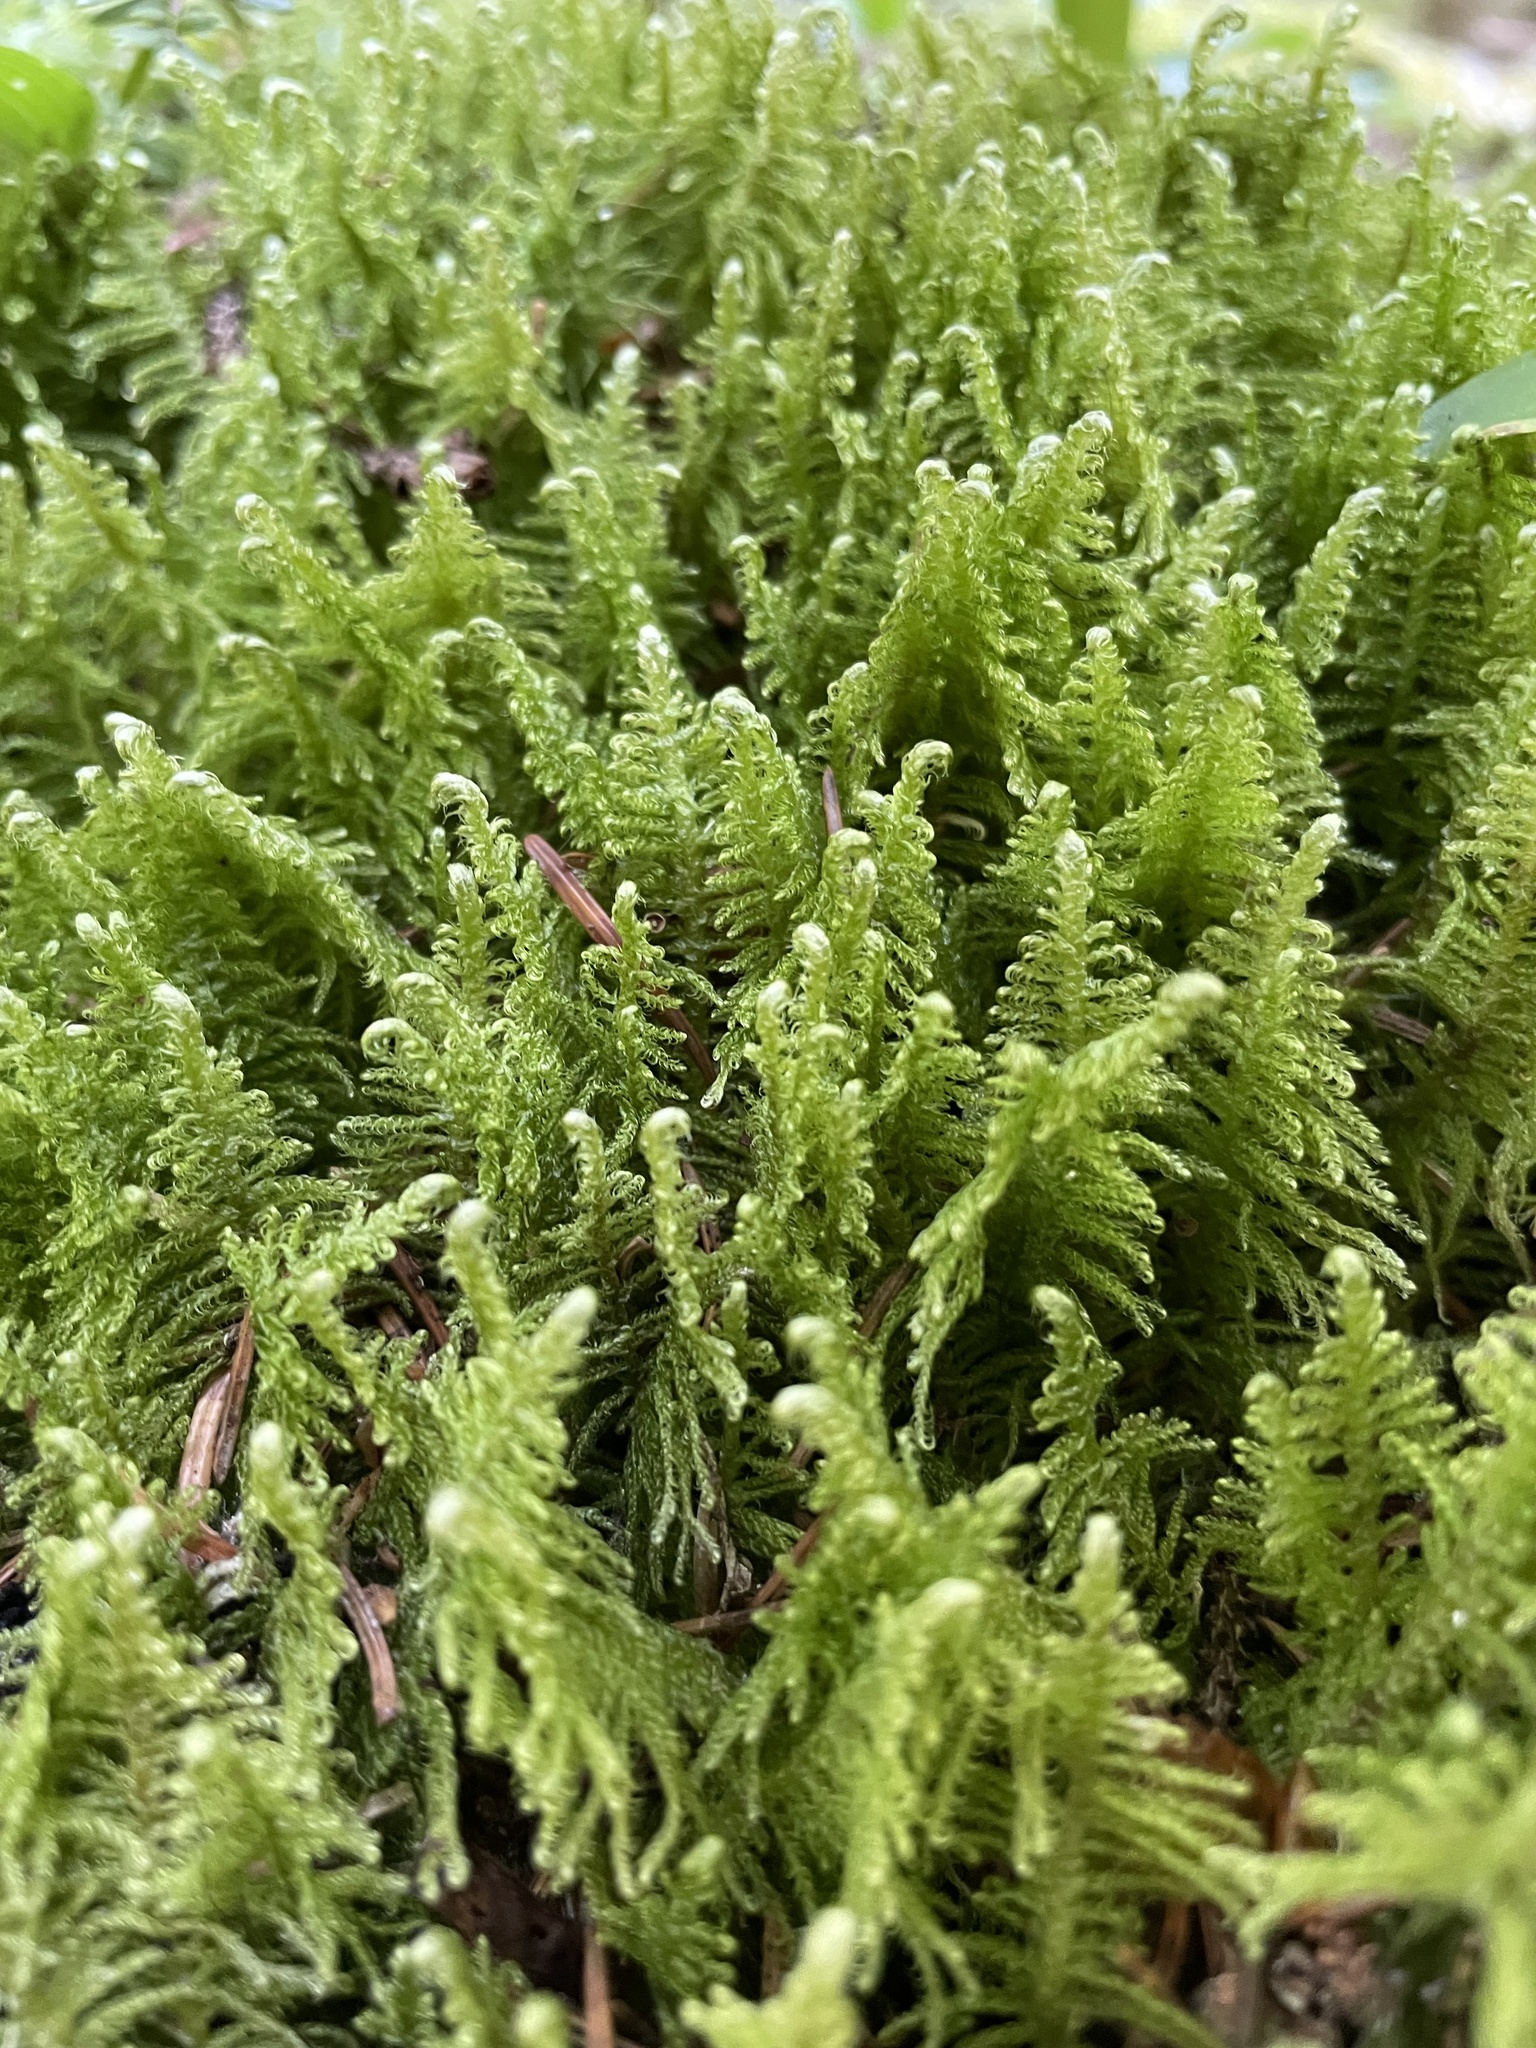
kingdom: Plantae
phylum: Bryophyta
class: Bryopsida
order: Hypnales
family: Pylaisiaceae
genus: Ptilium
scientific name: Ptilium crista-castrensis
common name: Knight's plume moss
